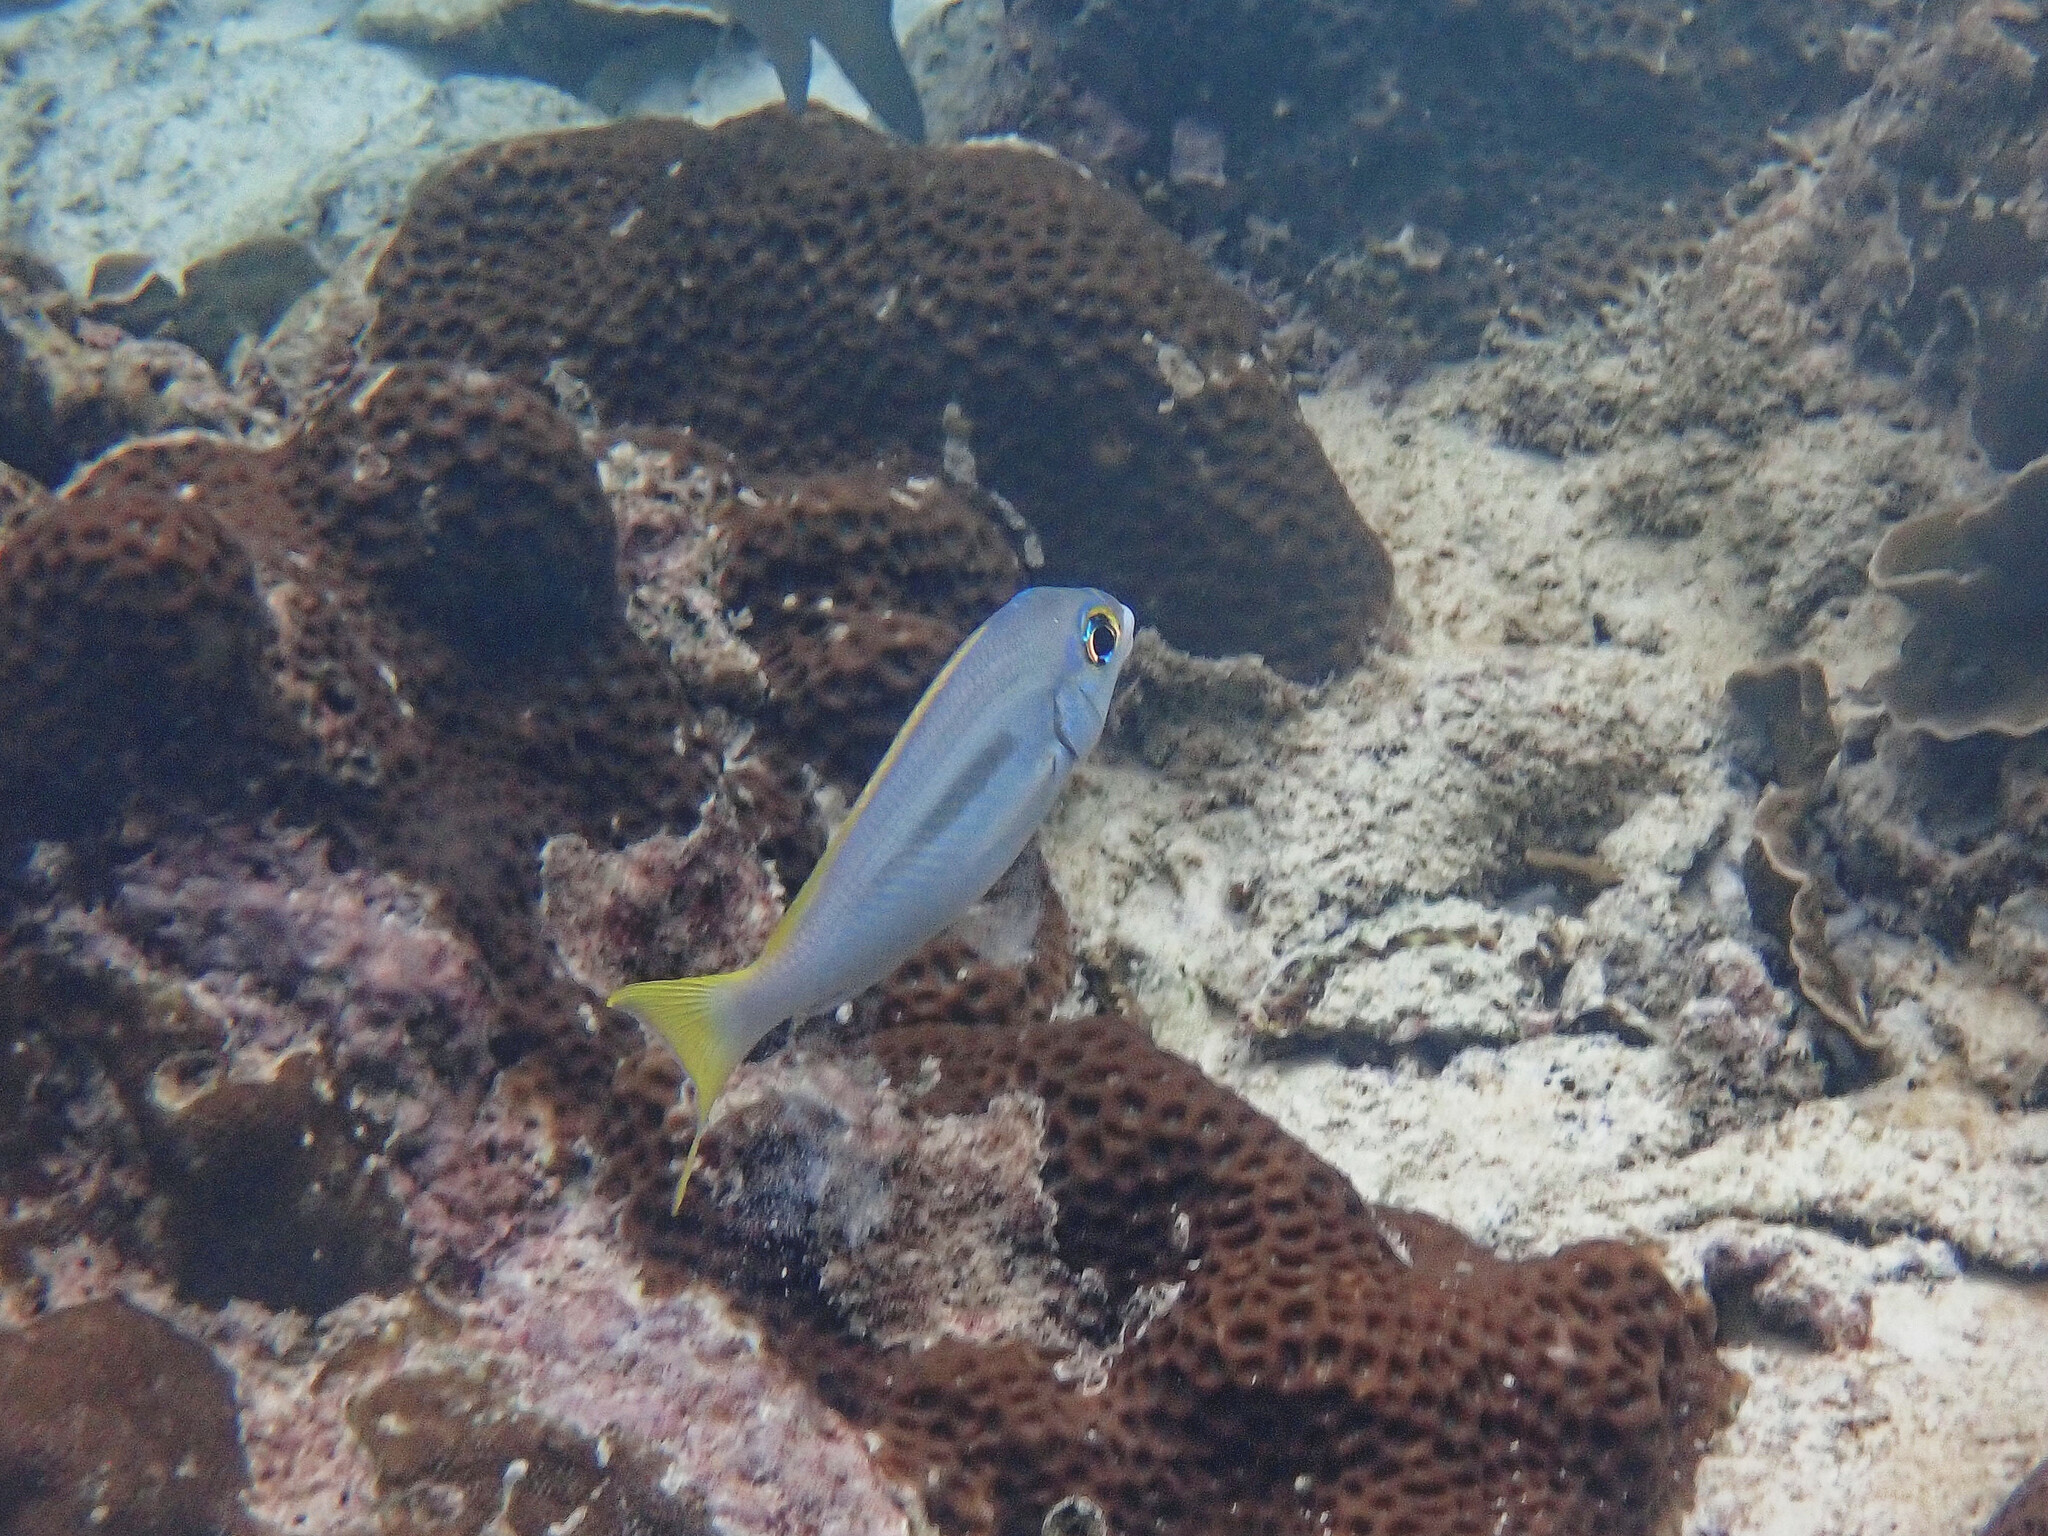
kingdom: Animalia
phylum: Chordata
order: Perciformes
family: Nemipteridae
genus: Scolopsis
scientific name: Scolopsis monogramma
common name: Monogrammed monocle bream
